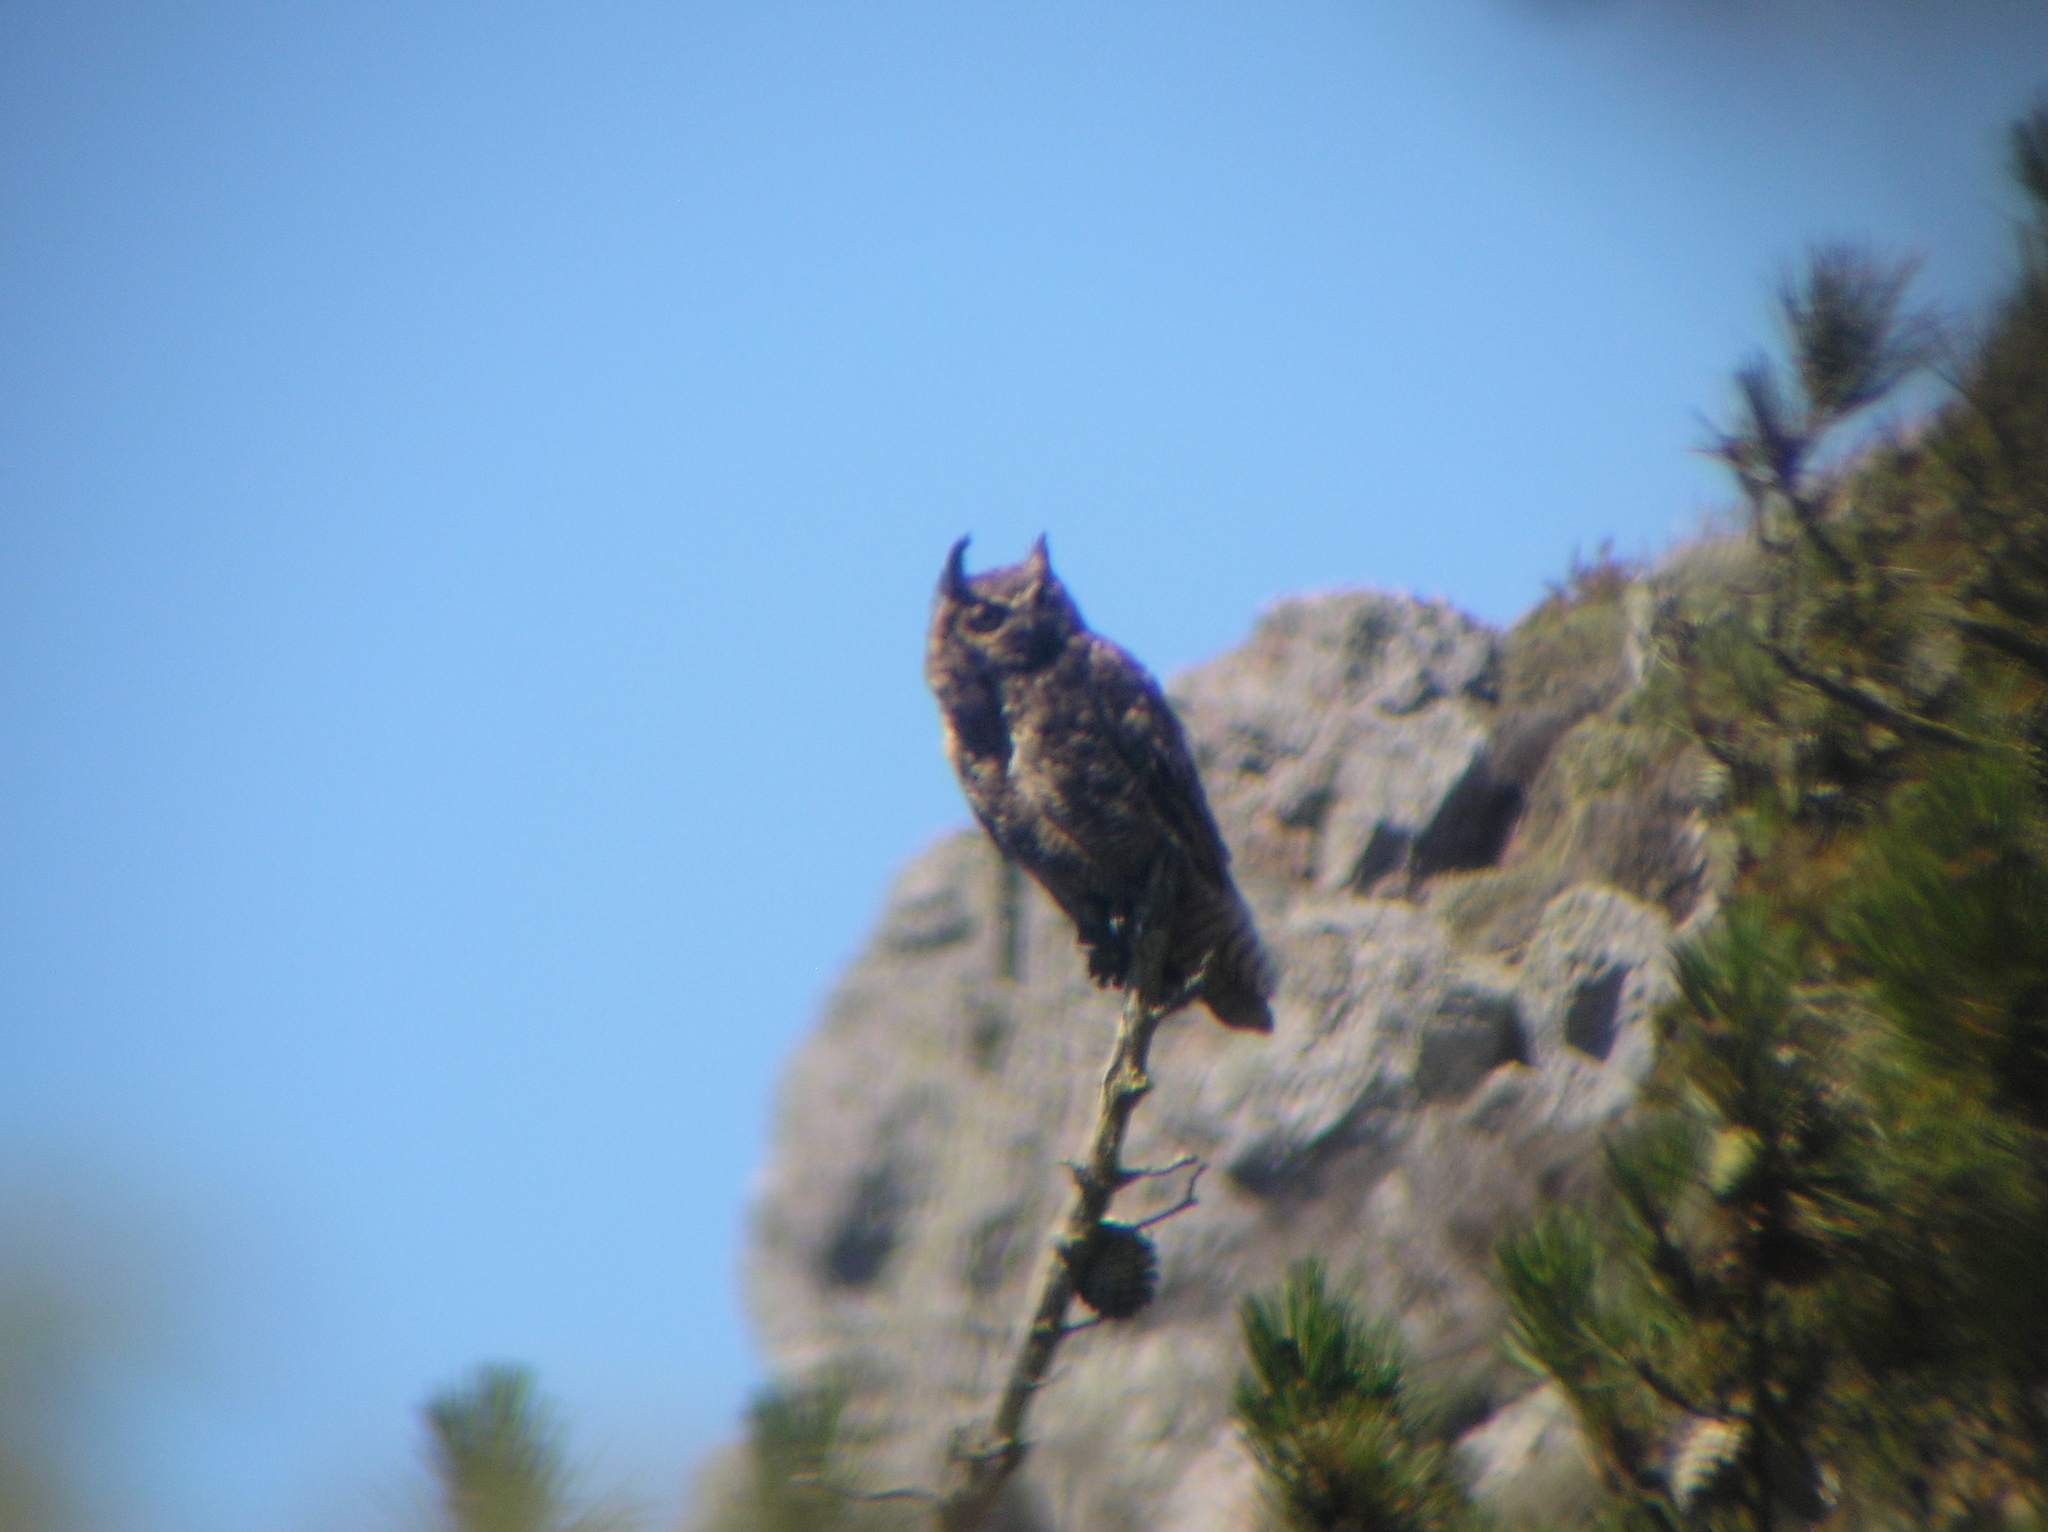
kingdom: Animalia
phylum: Chordata
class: Aves
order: Strigiformes
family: Strigidae
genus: Bubo
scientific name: Bubo virginianus
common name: Great horned owl
